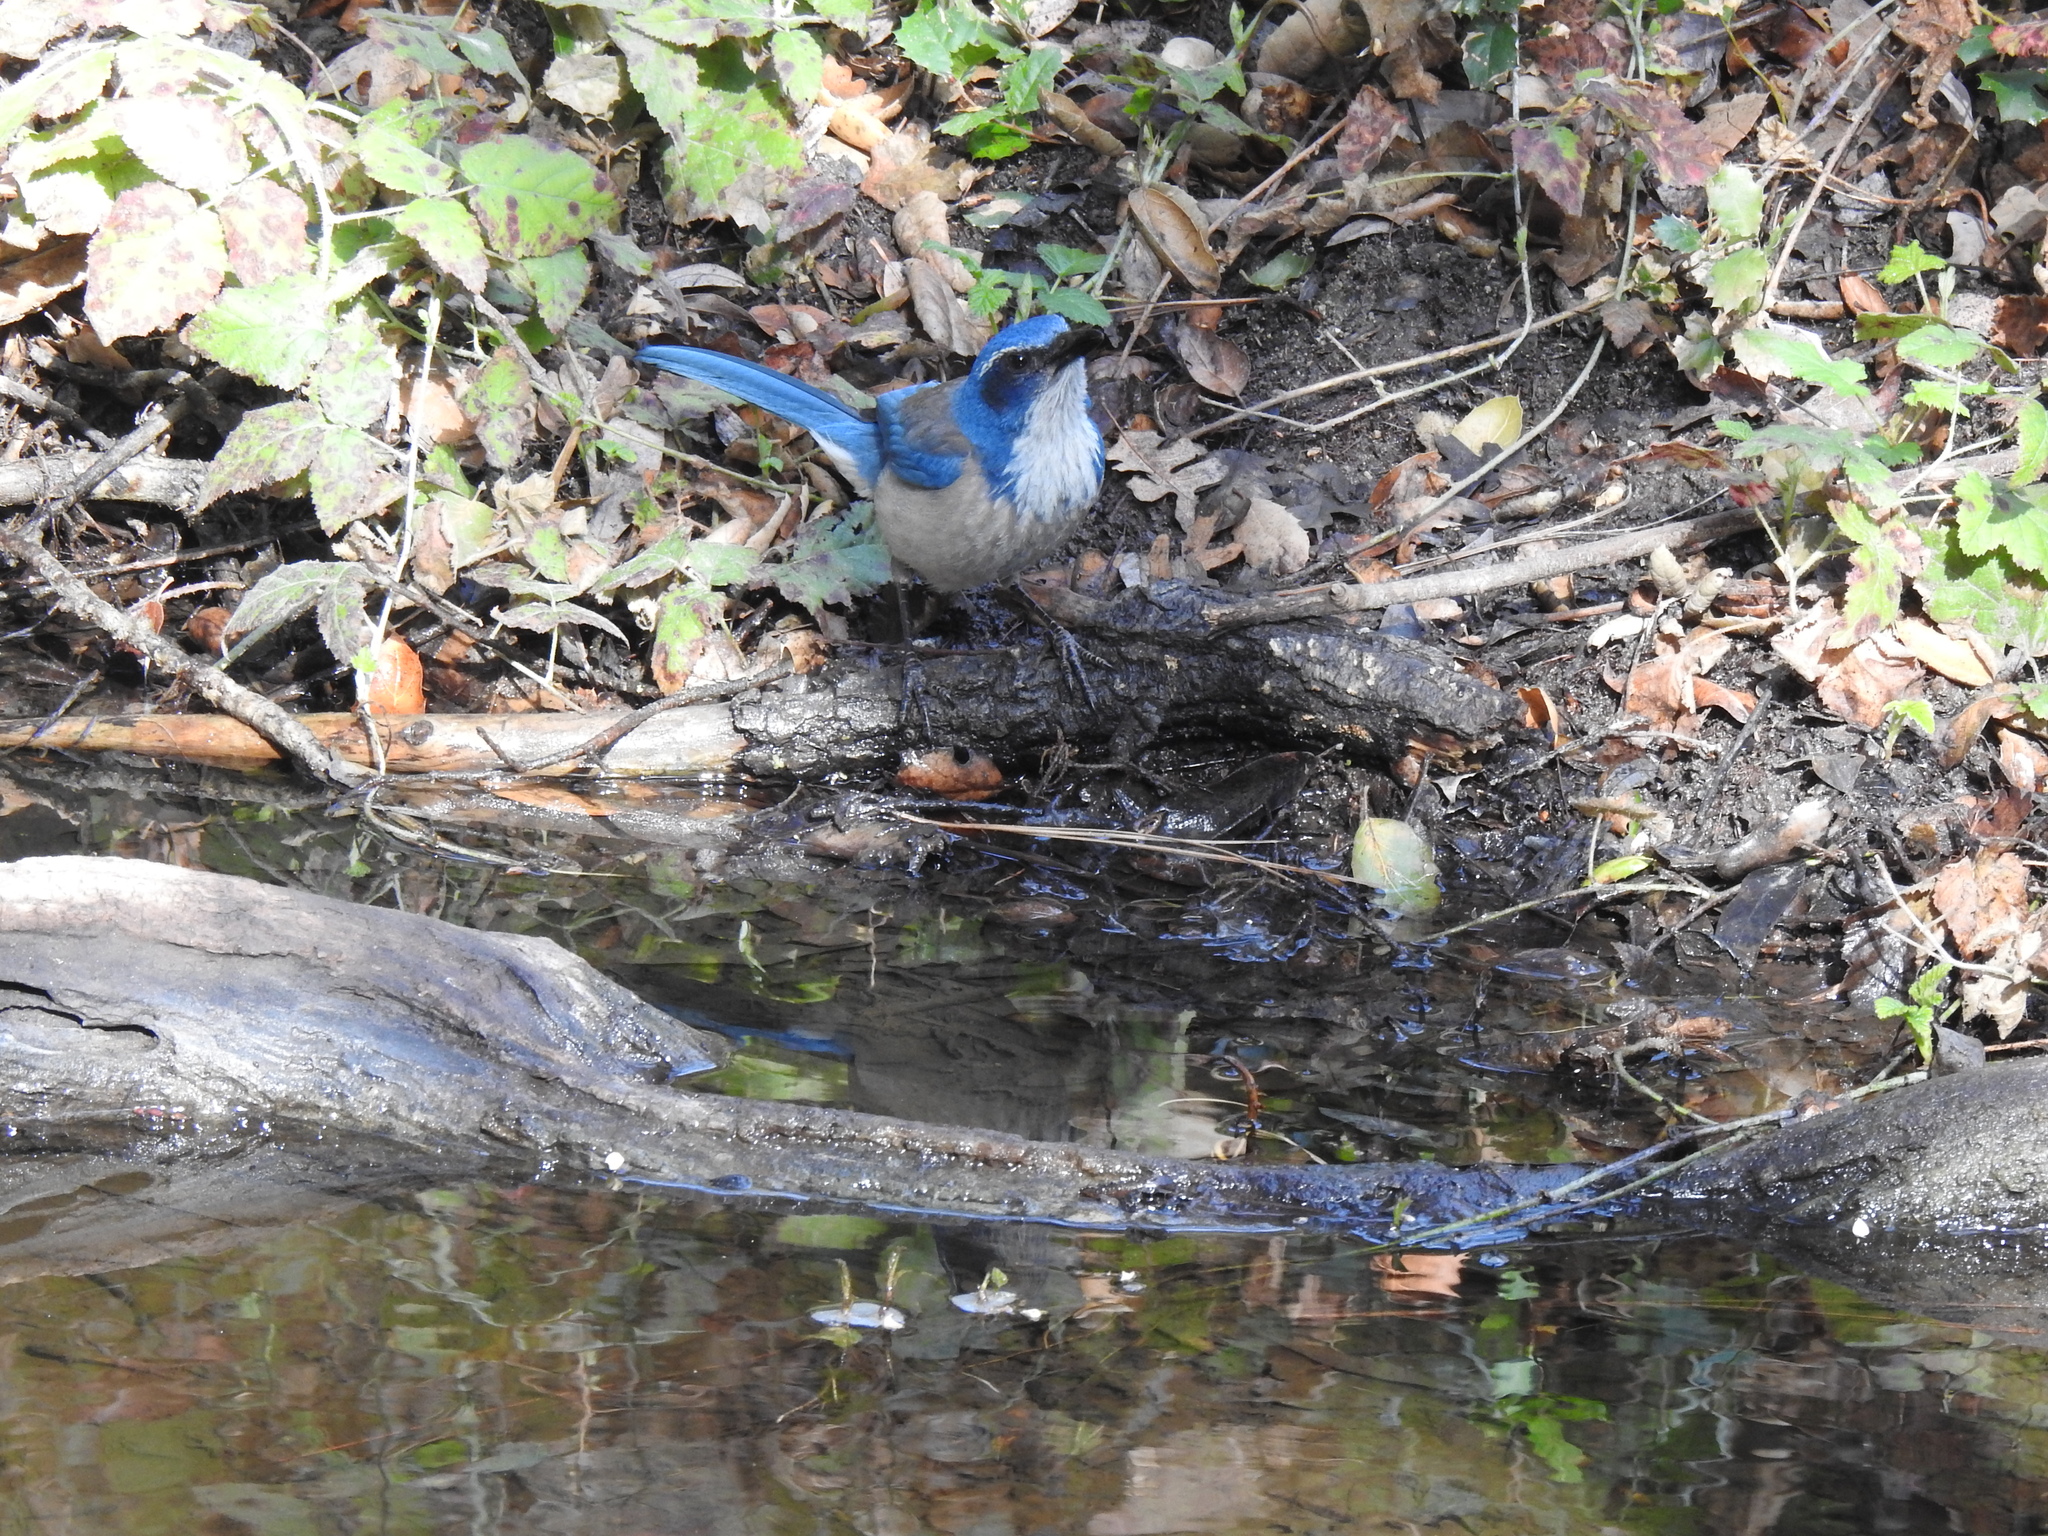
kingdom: Animalia
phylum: Chordata
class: Aves
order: Passeriformes
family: Corvidae
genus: Aphelocoma
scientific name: Aphelocoma californica
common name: California scrub-jay
